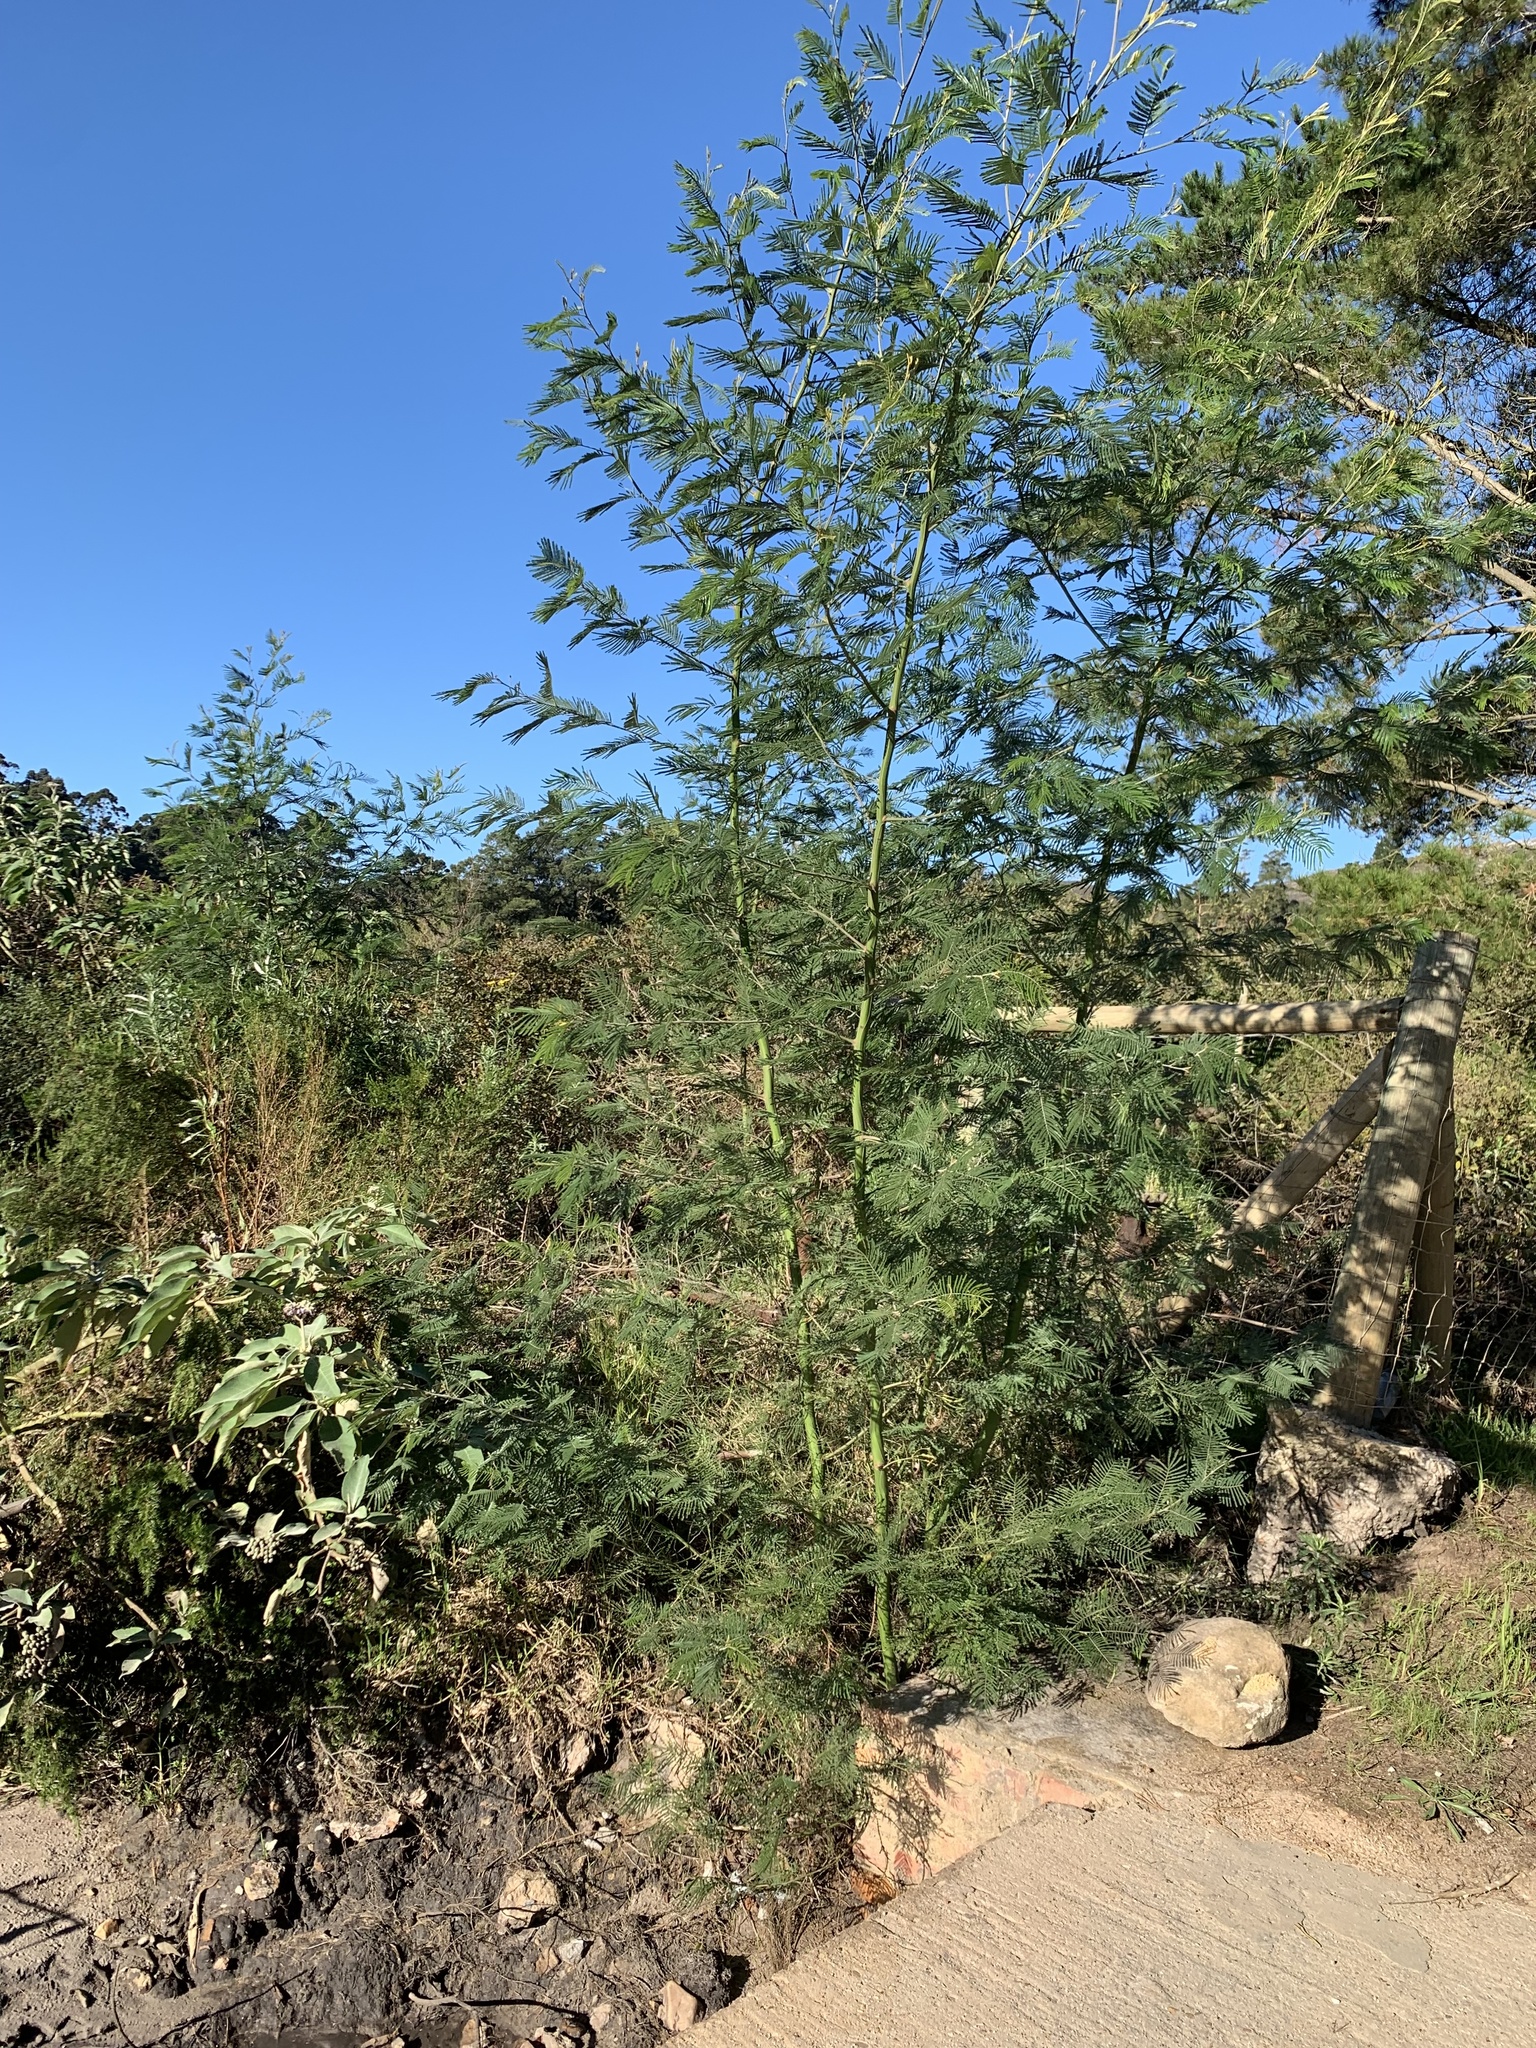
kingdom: Plantae
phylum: Tracheophyta
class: Magnoliopsida
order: Fabales
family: Fabaceae
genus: Acacia
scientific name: Acacia mearnsii
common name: Black wattle
